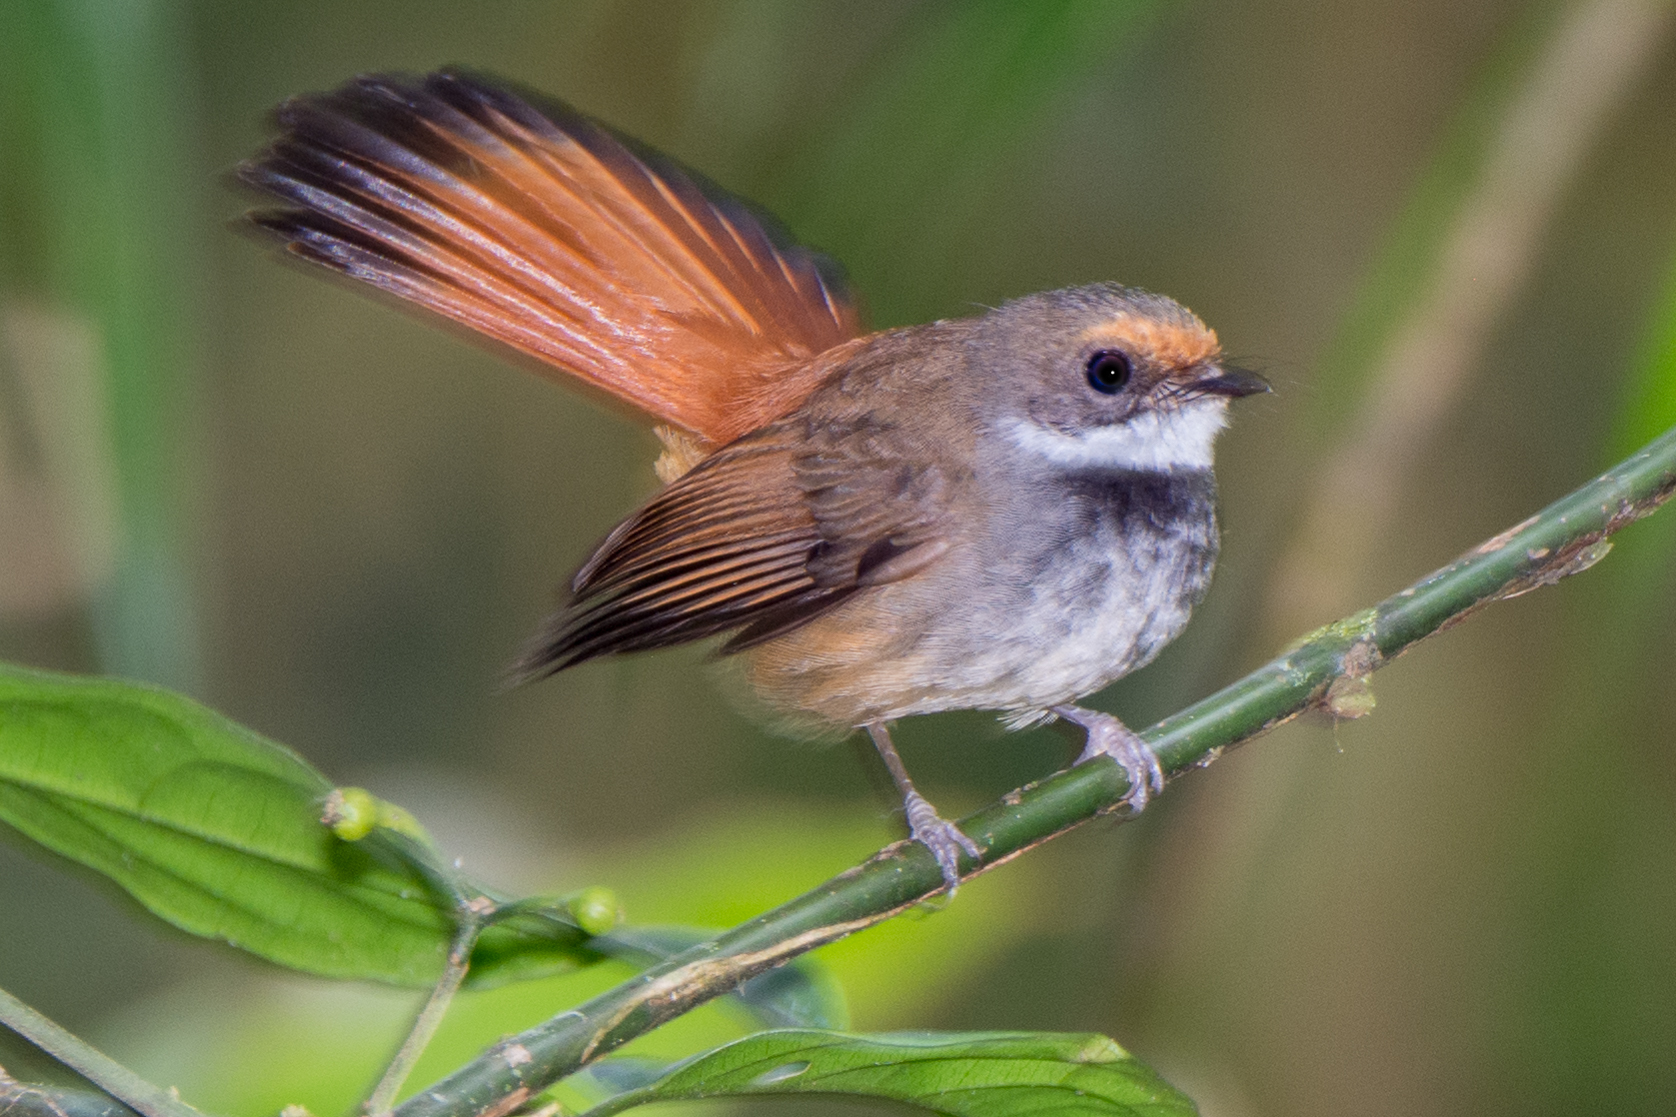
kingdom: Animalia
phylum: Chordata
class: Aves
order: Passeriformes
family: Rhipiduridae
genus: Rhipidura
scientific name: Rhipidura teysmanni
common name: Rusty-bellied fantail
